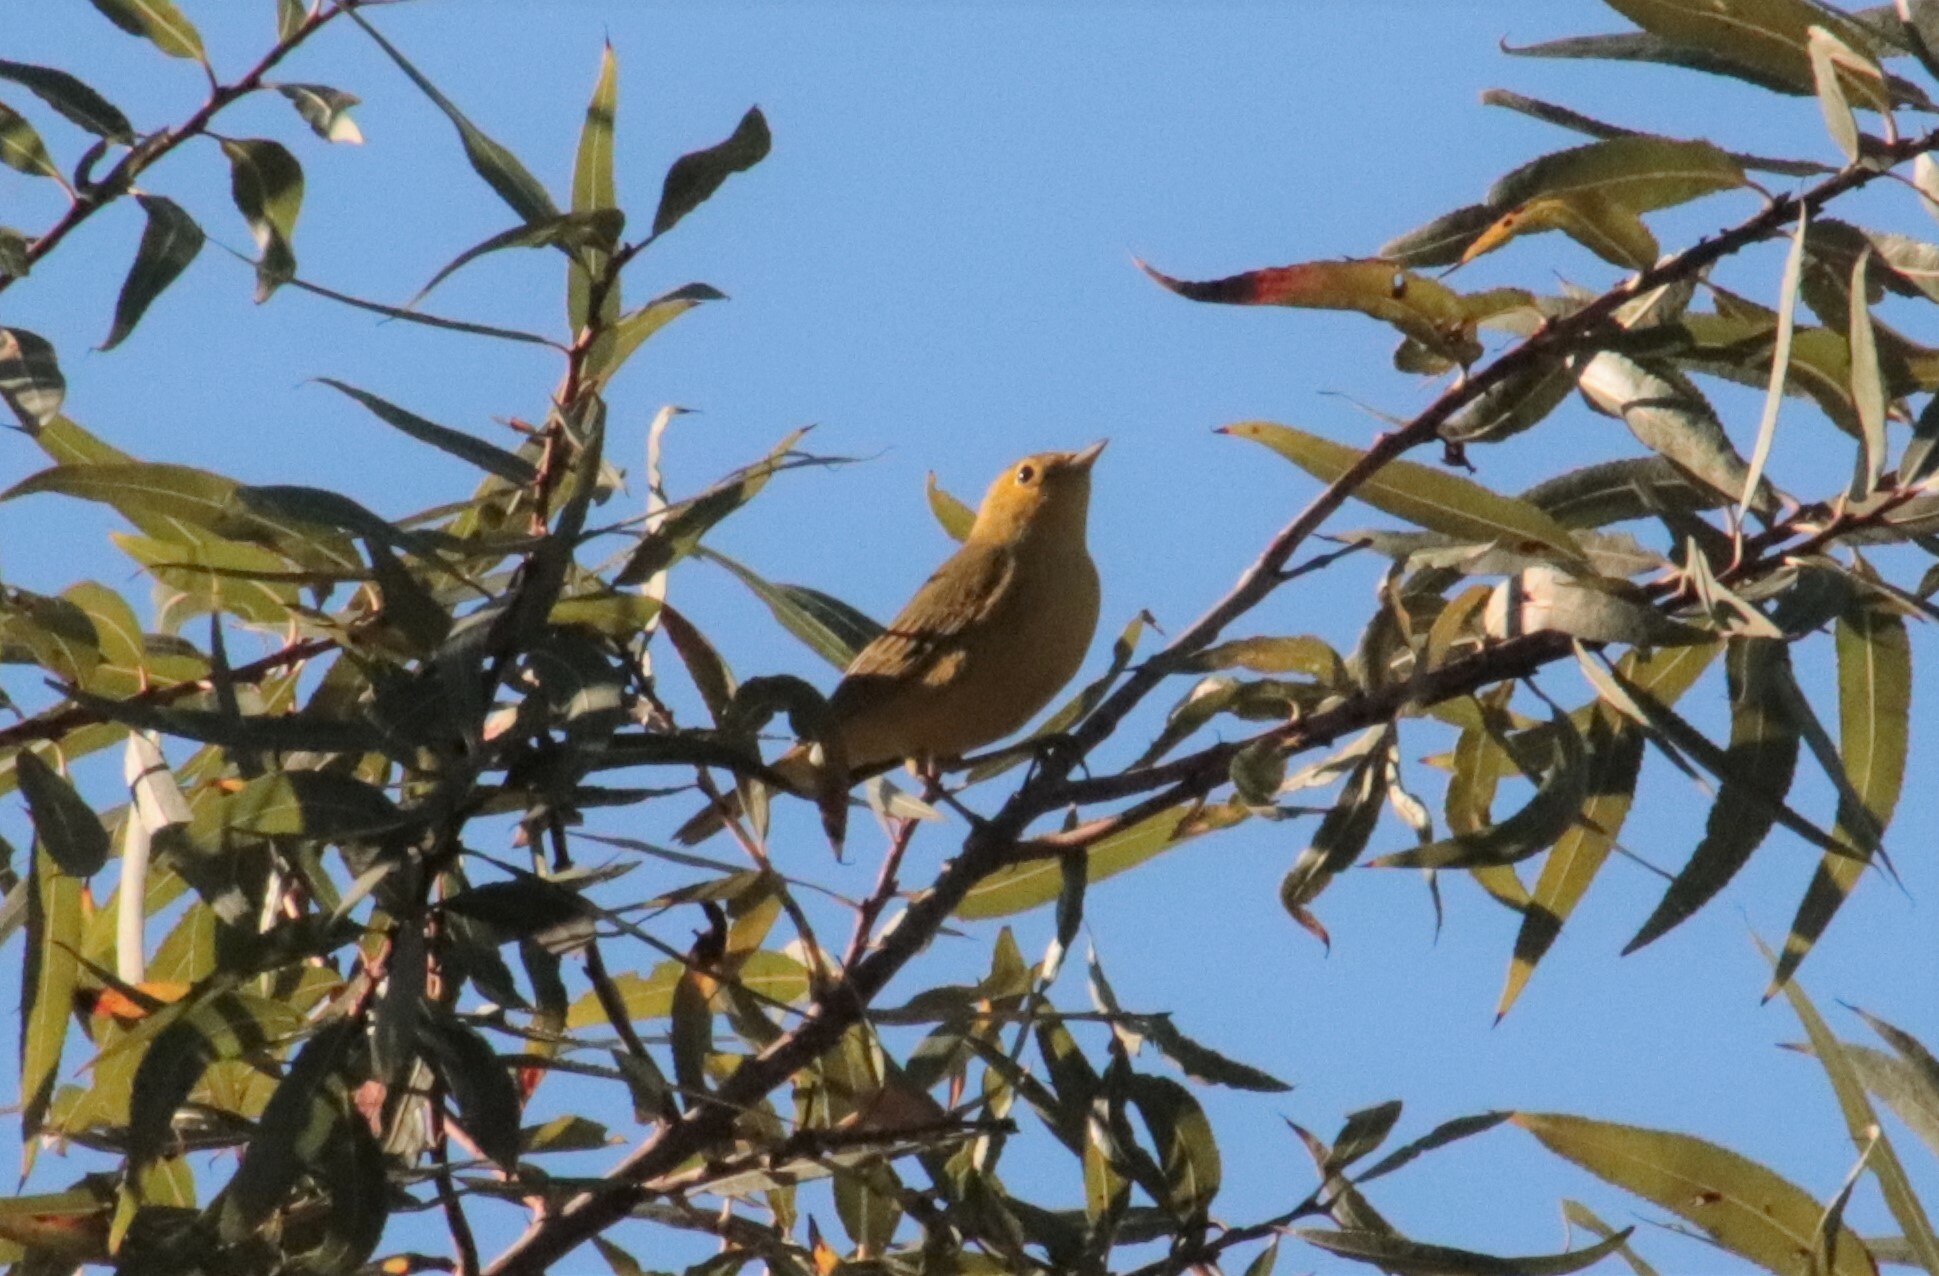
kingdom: Animalia
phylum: Chordata
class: Aves
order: Passeriformes
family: Parulidae
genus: Setophaga
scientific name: Setophaga petechia
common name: Yellow warbler
